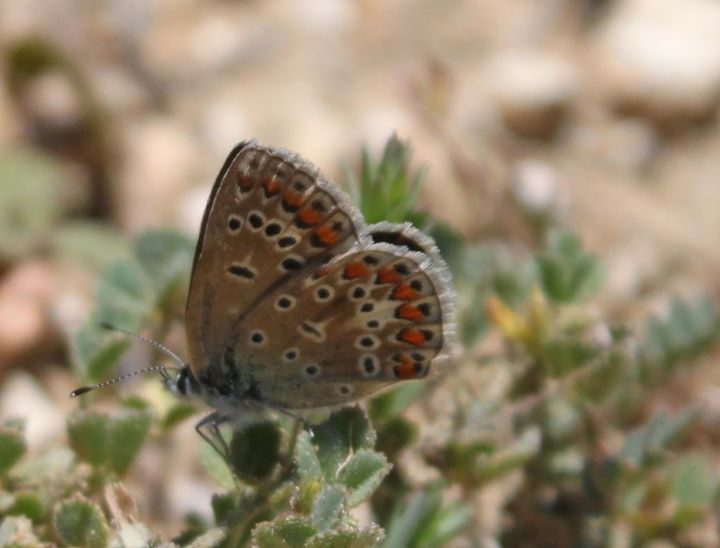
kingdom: Animalia
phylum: Arthropoda
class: Insecta
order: Lepidoptera
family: Lycaenidae
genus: Polyommatus
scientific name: Polyommatus icarus
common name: Common blue
